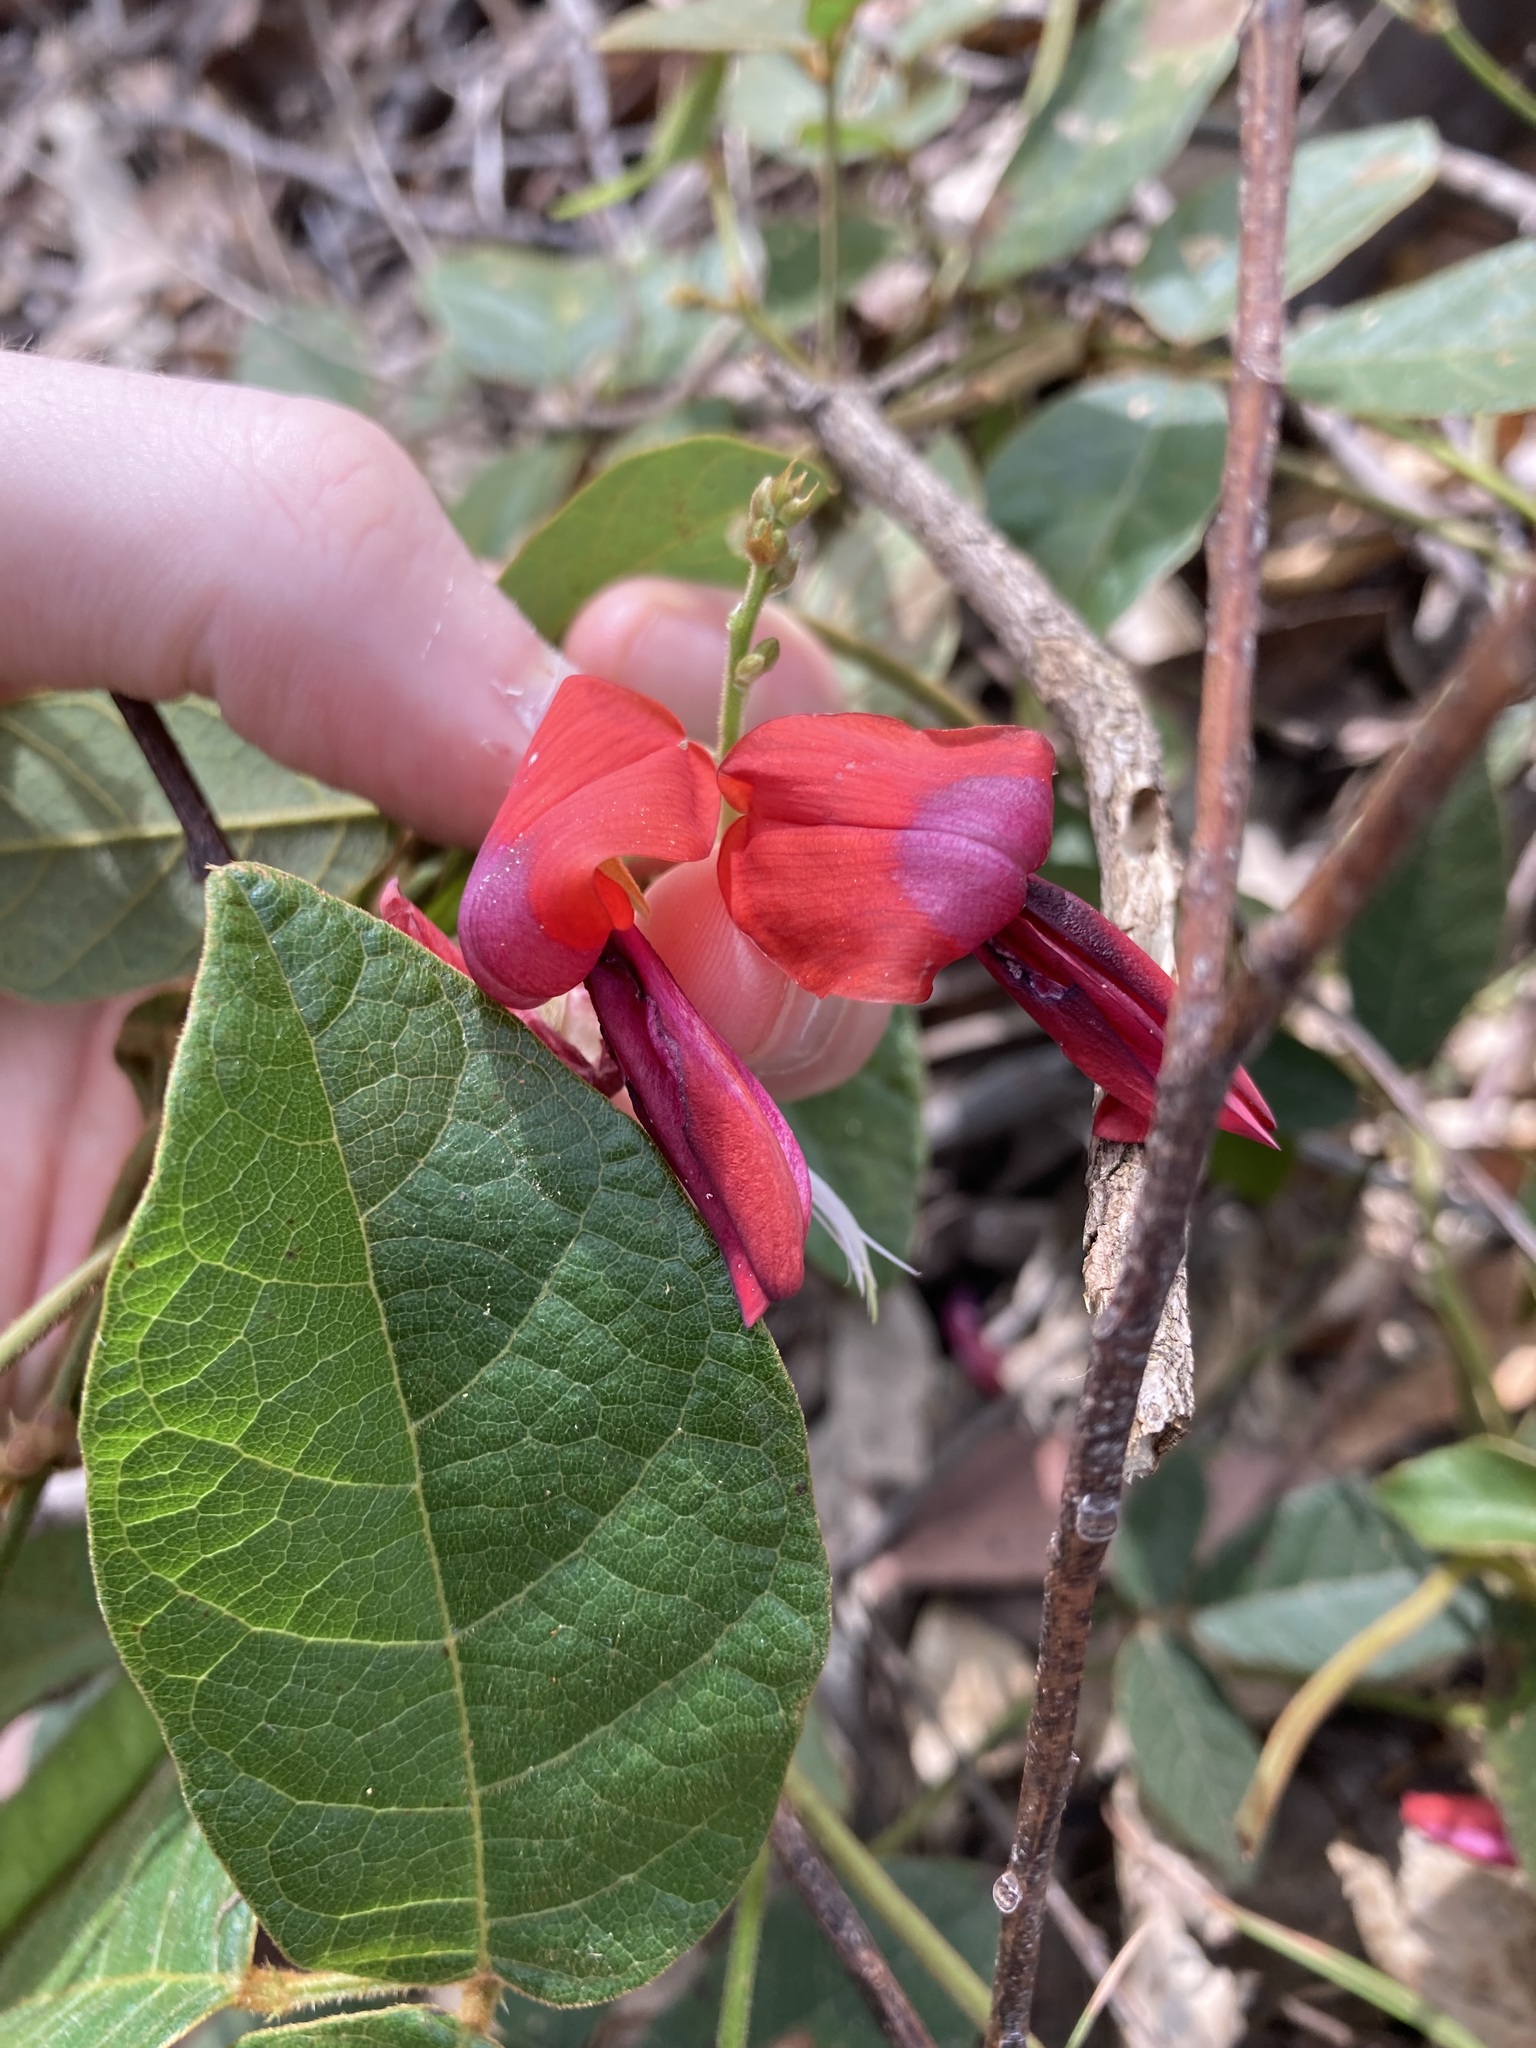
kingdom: Plantae
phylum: Tracheophyta
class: Magnoliopsida
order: Fabales
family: Fabaceae
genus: Kennedia
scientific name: Kennedia rubicunda
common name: Red kennedy-pea
